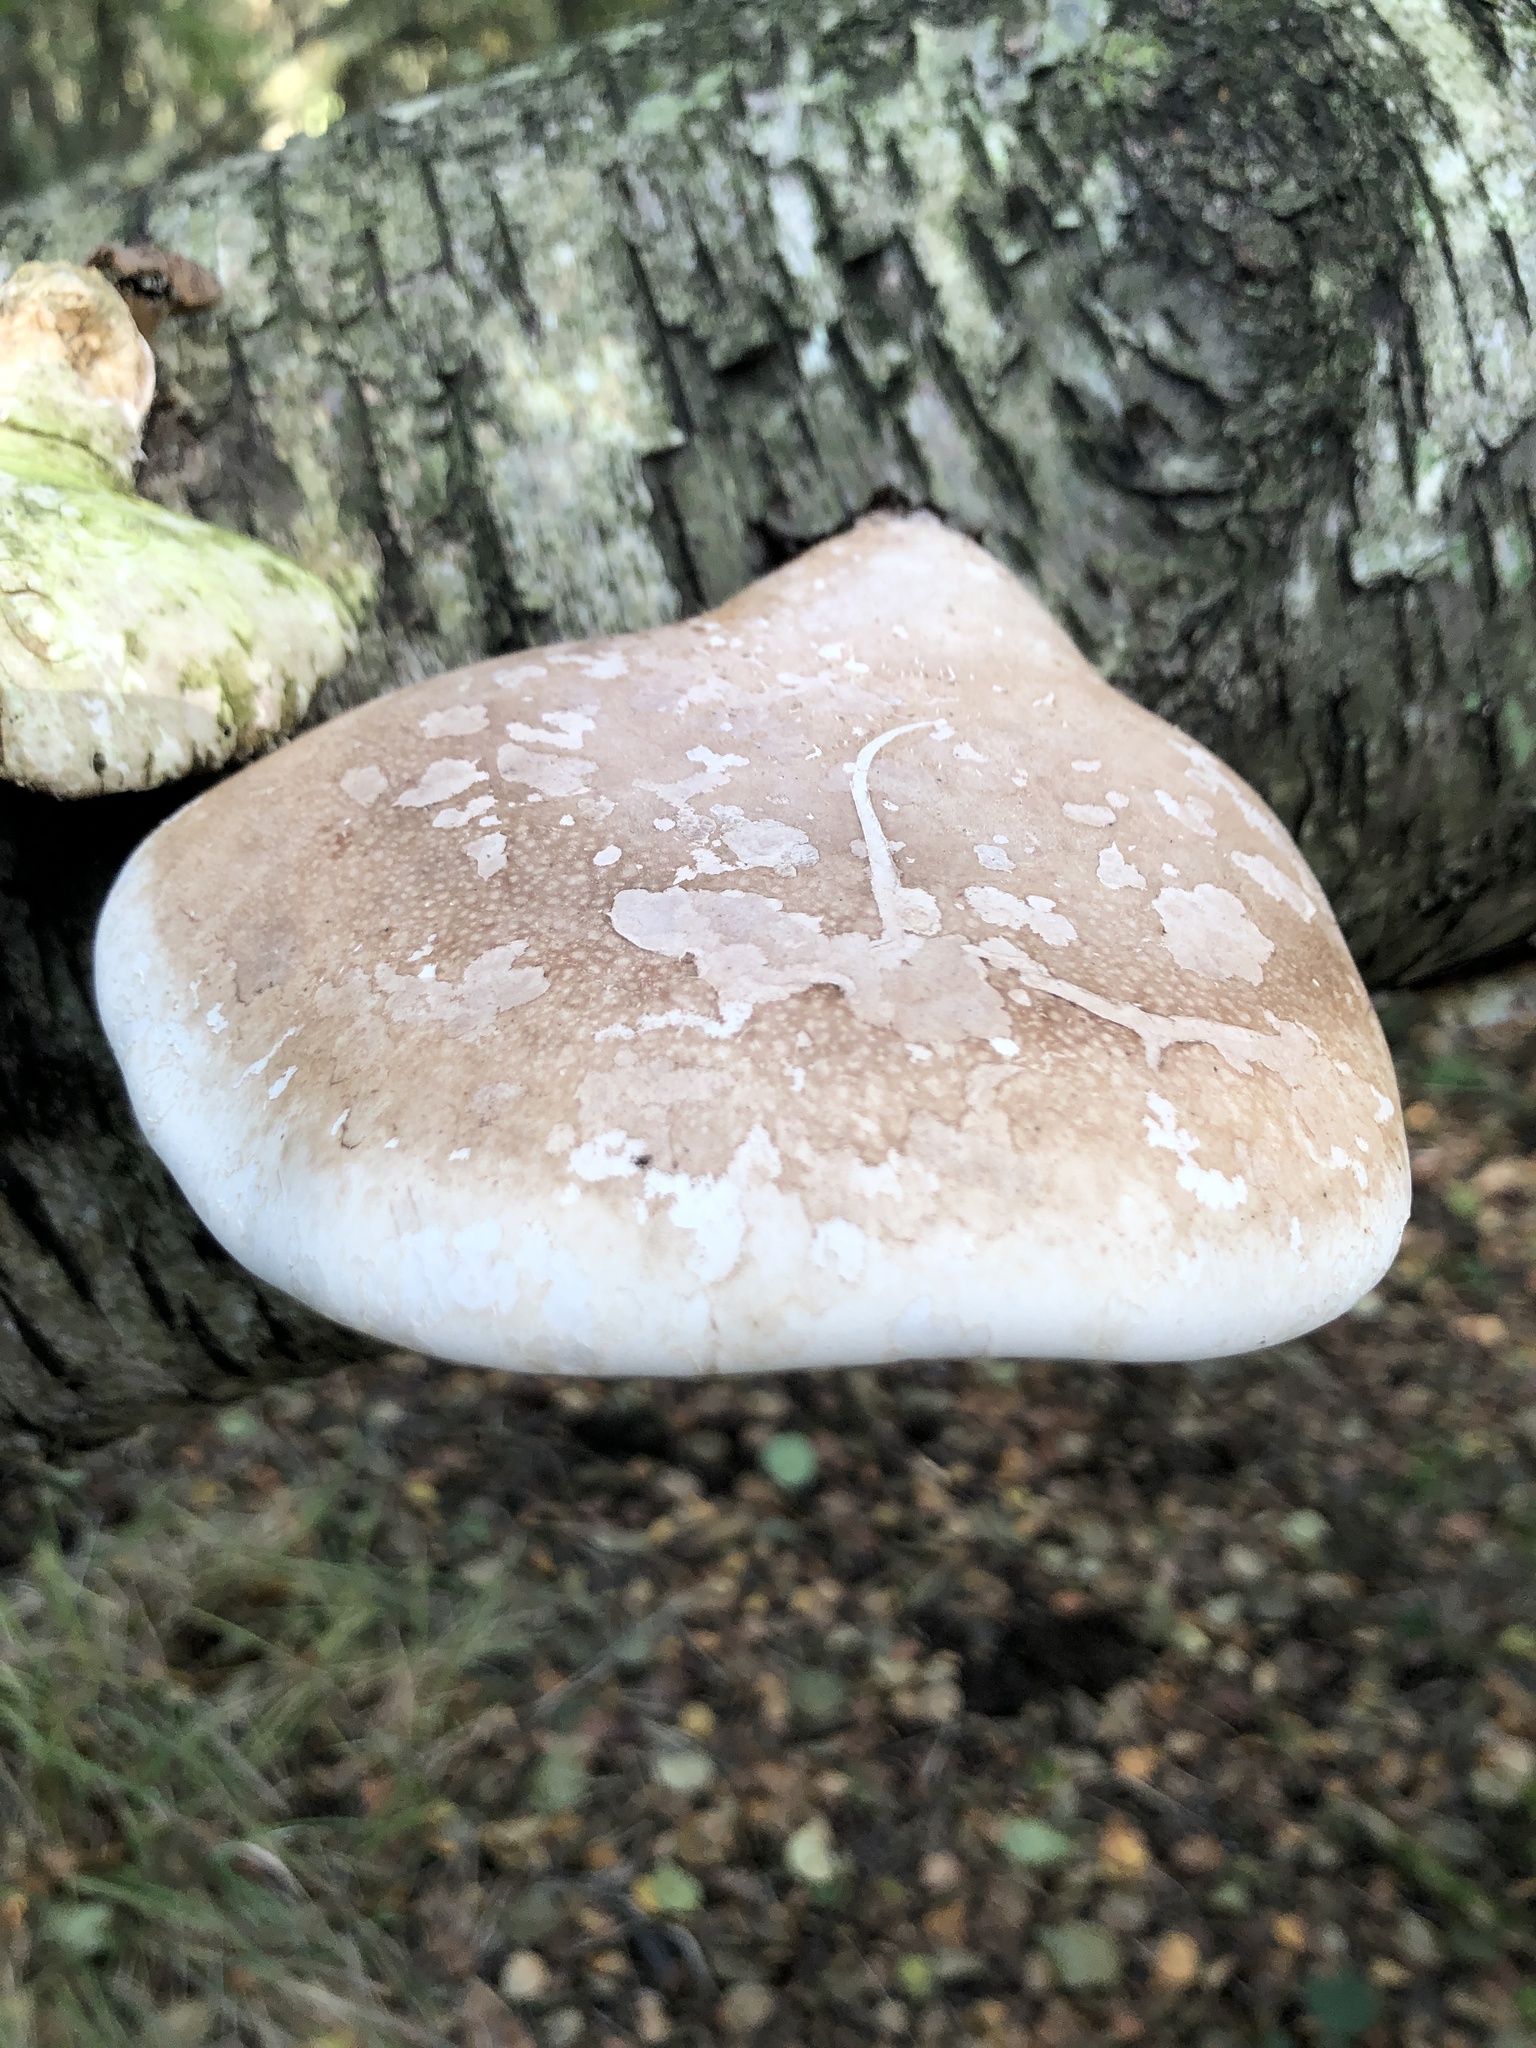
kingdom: Fungi
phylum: Basidiomycota
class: Agaricomycetes
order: Polyporales
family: Fomitopsidaceae
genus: Fomitopsis
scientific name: Fomitopsis betulina
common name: Birch polypore
